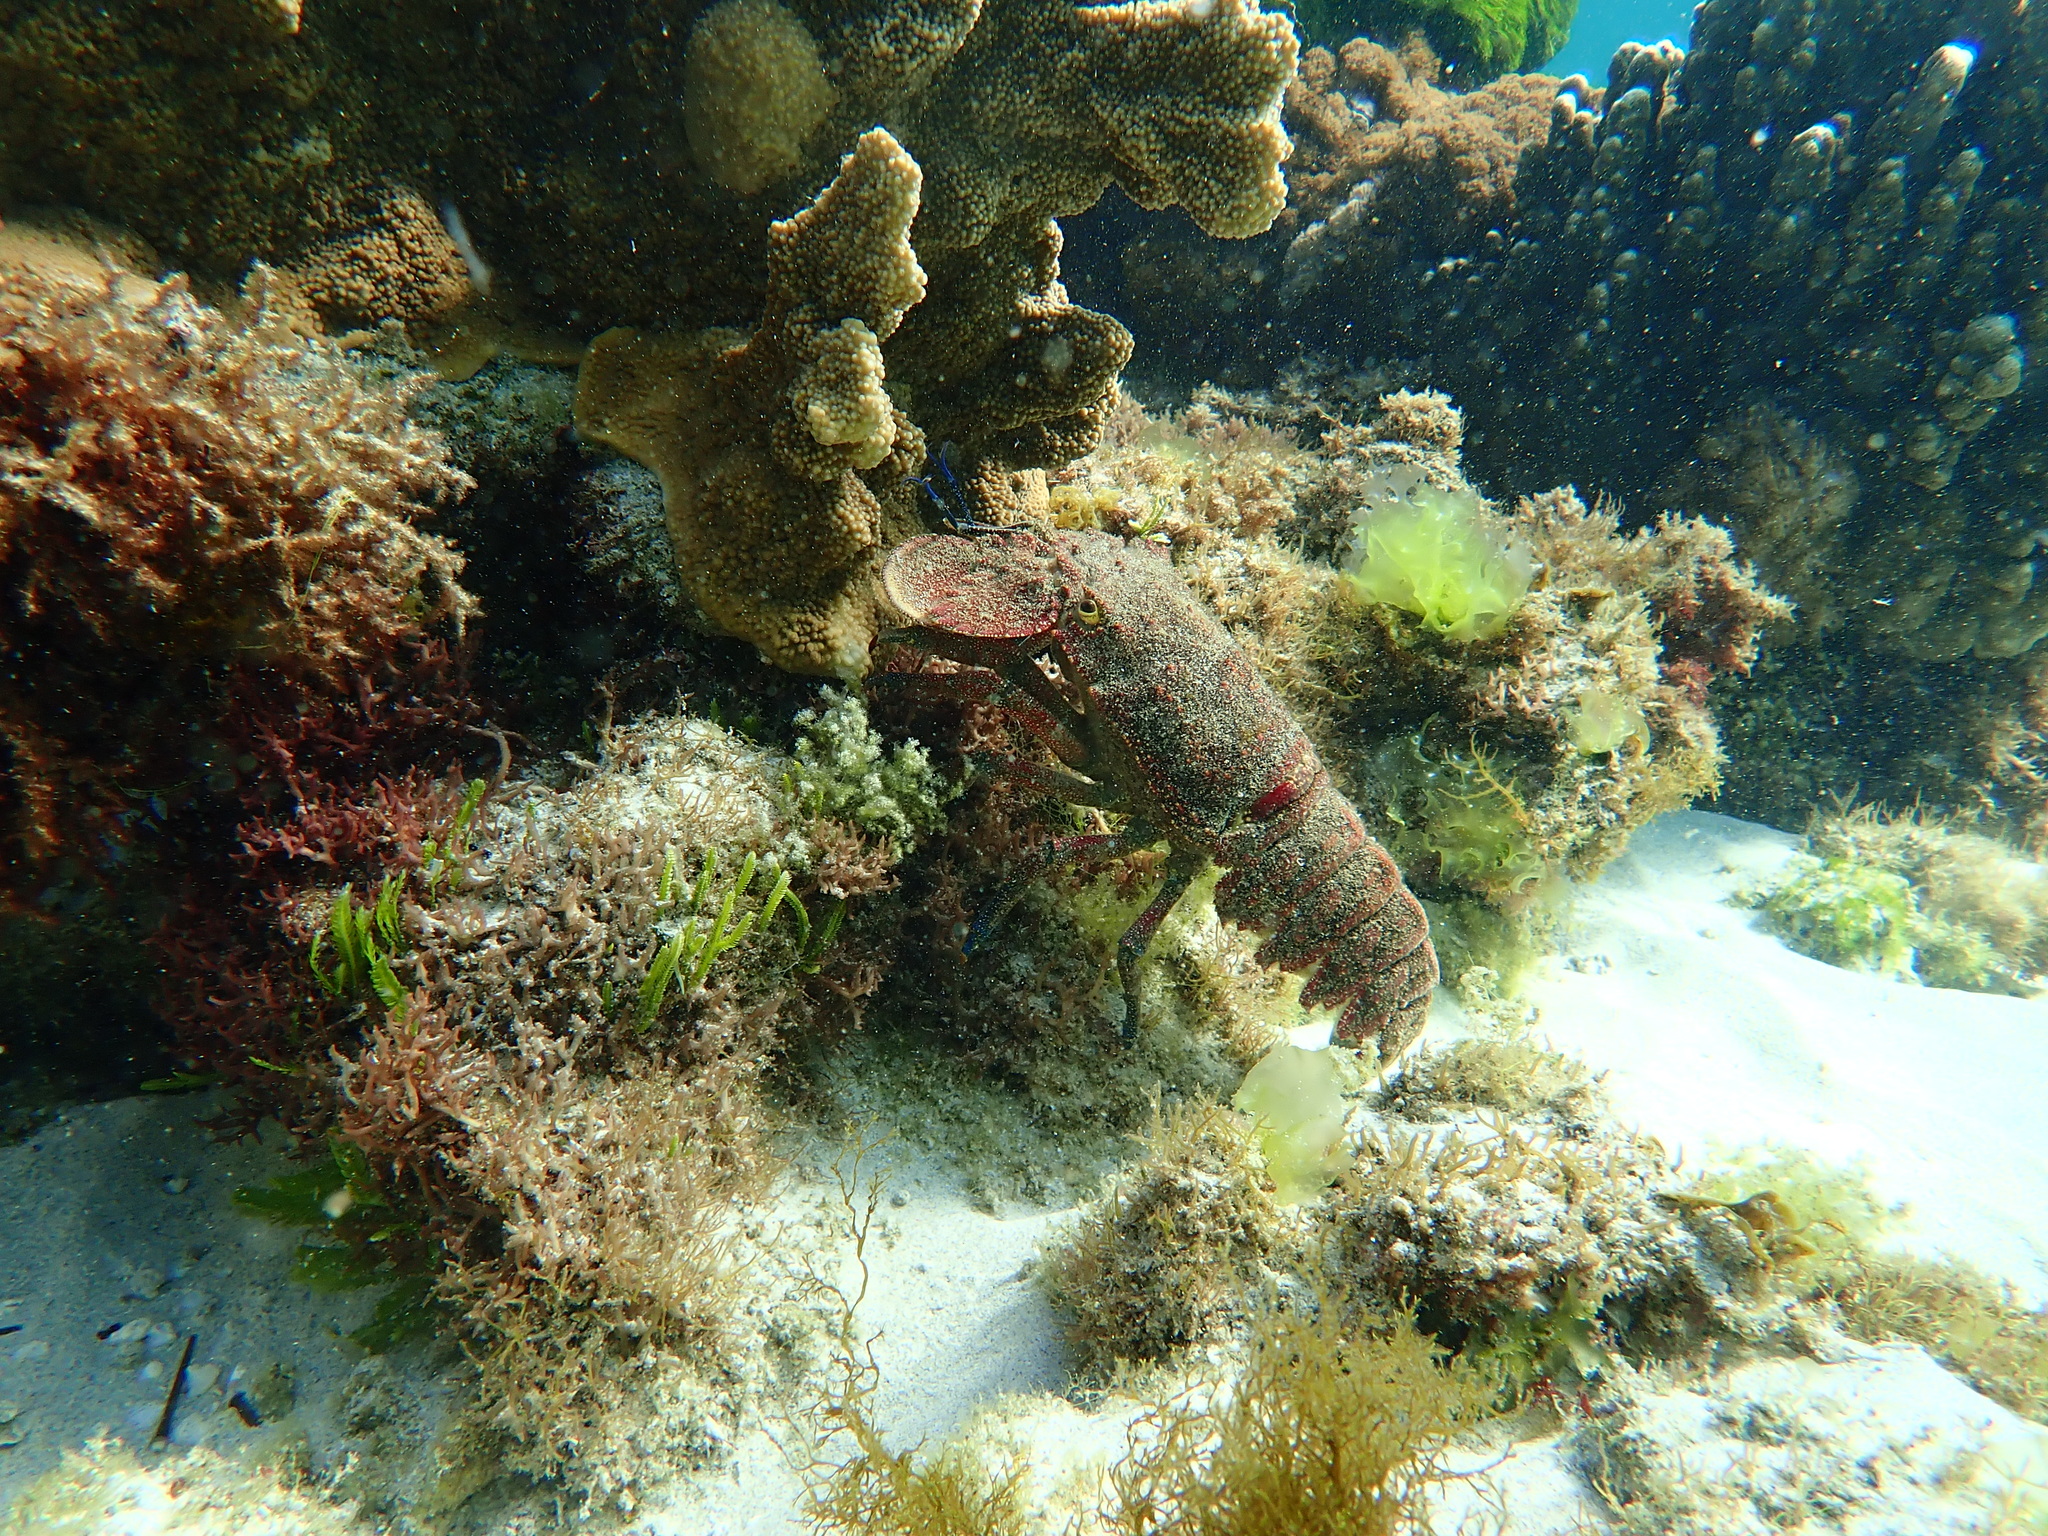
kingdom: Animalia
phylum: Arthropoda
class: Malacostraca
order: Decapoda
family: Scyllaridae
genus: Arctides
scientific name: Arctides antipodarum
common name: Rough spanish lobster
